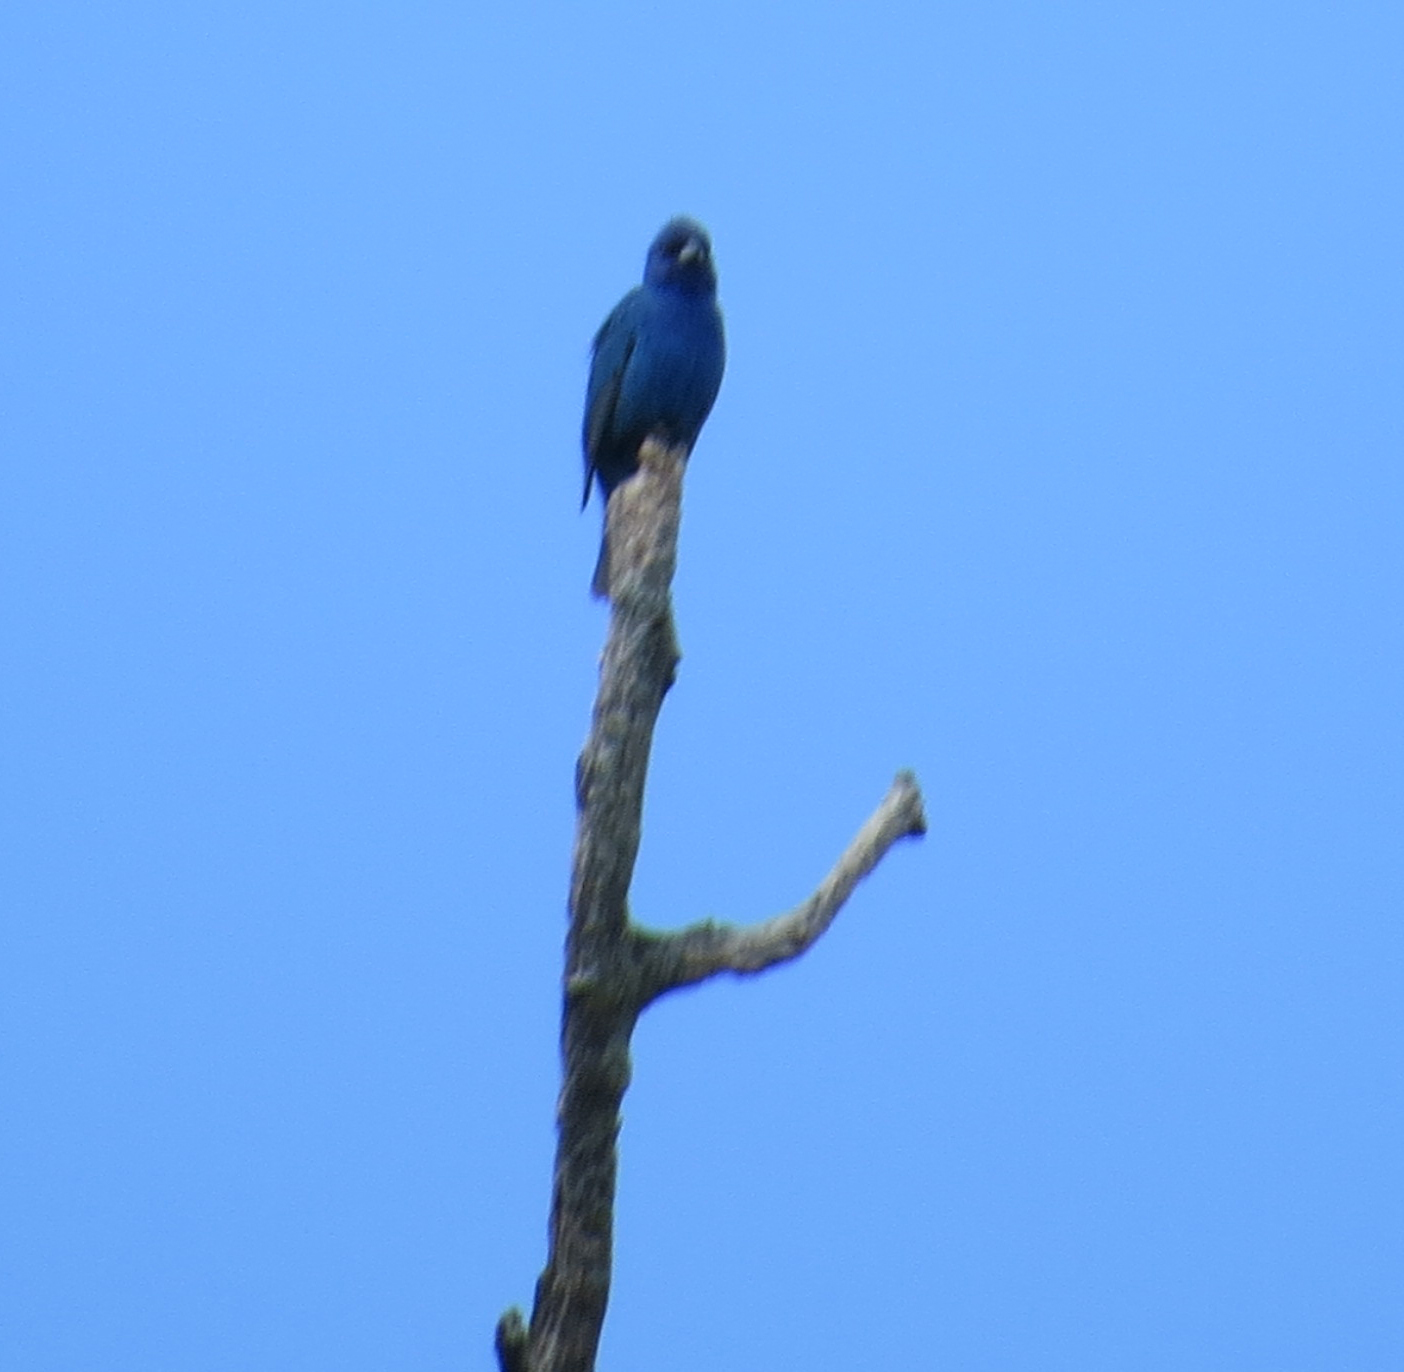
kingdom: Animalia
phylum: Chordata
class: Aves
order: Passeriformes
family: Cardinalidae
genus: Passerina
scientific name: Passerina cyanea
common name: Indigo bunting
